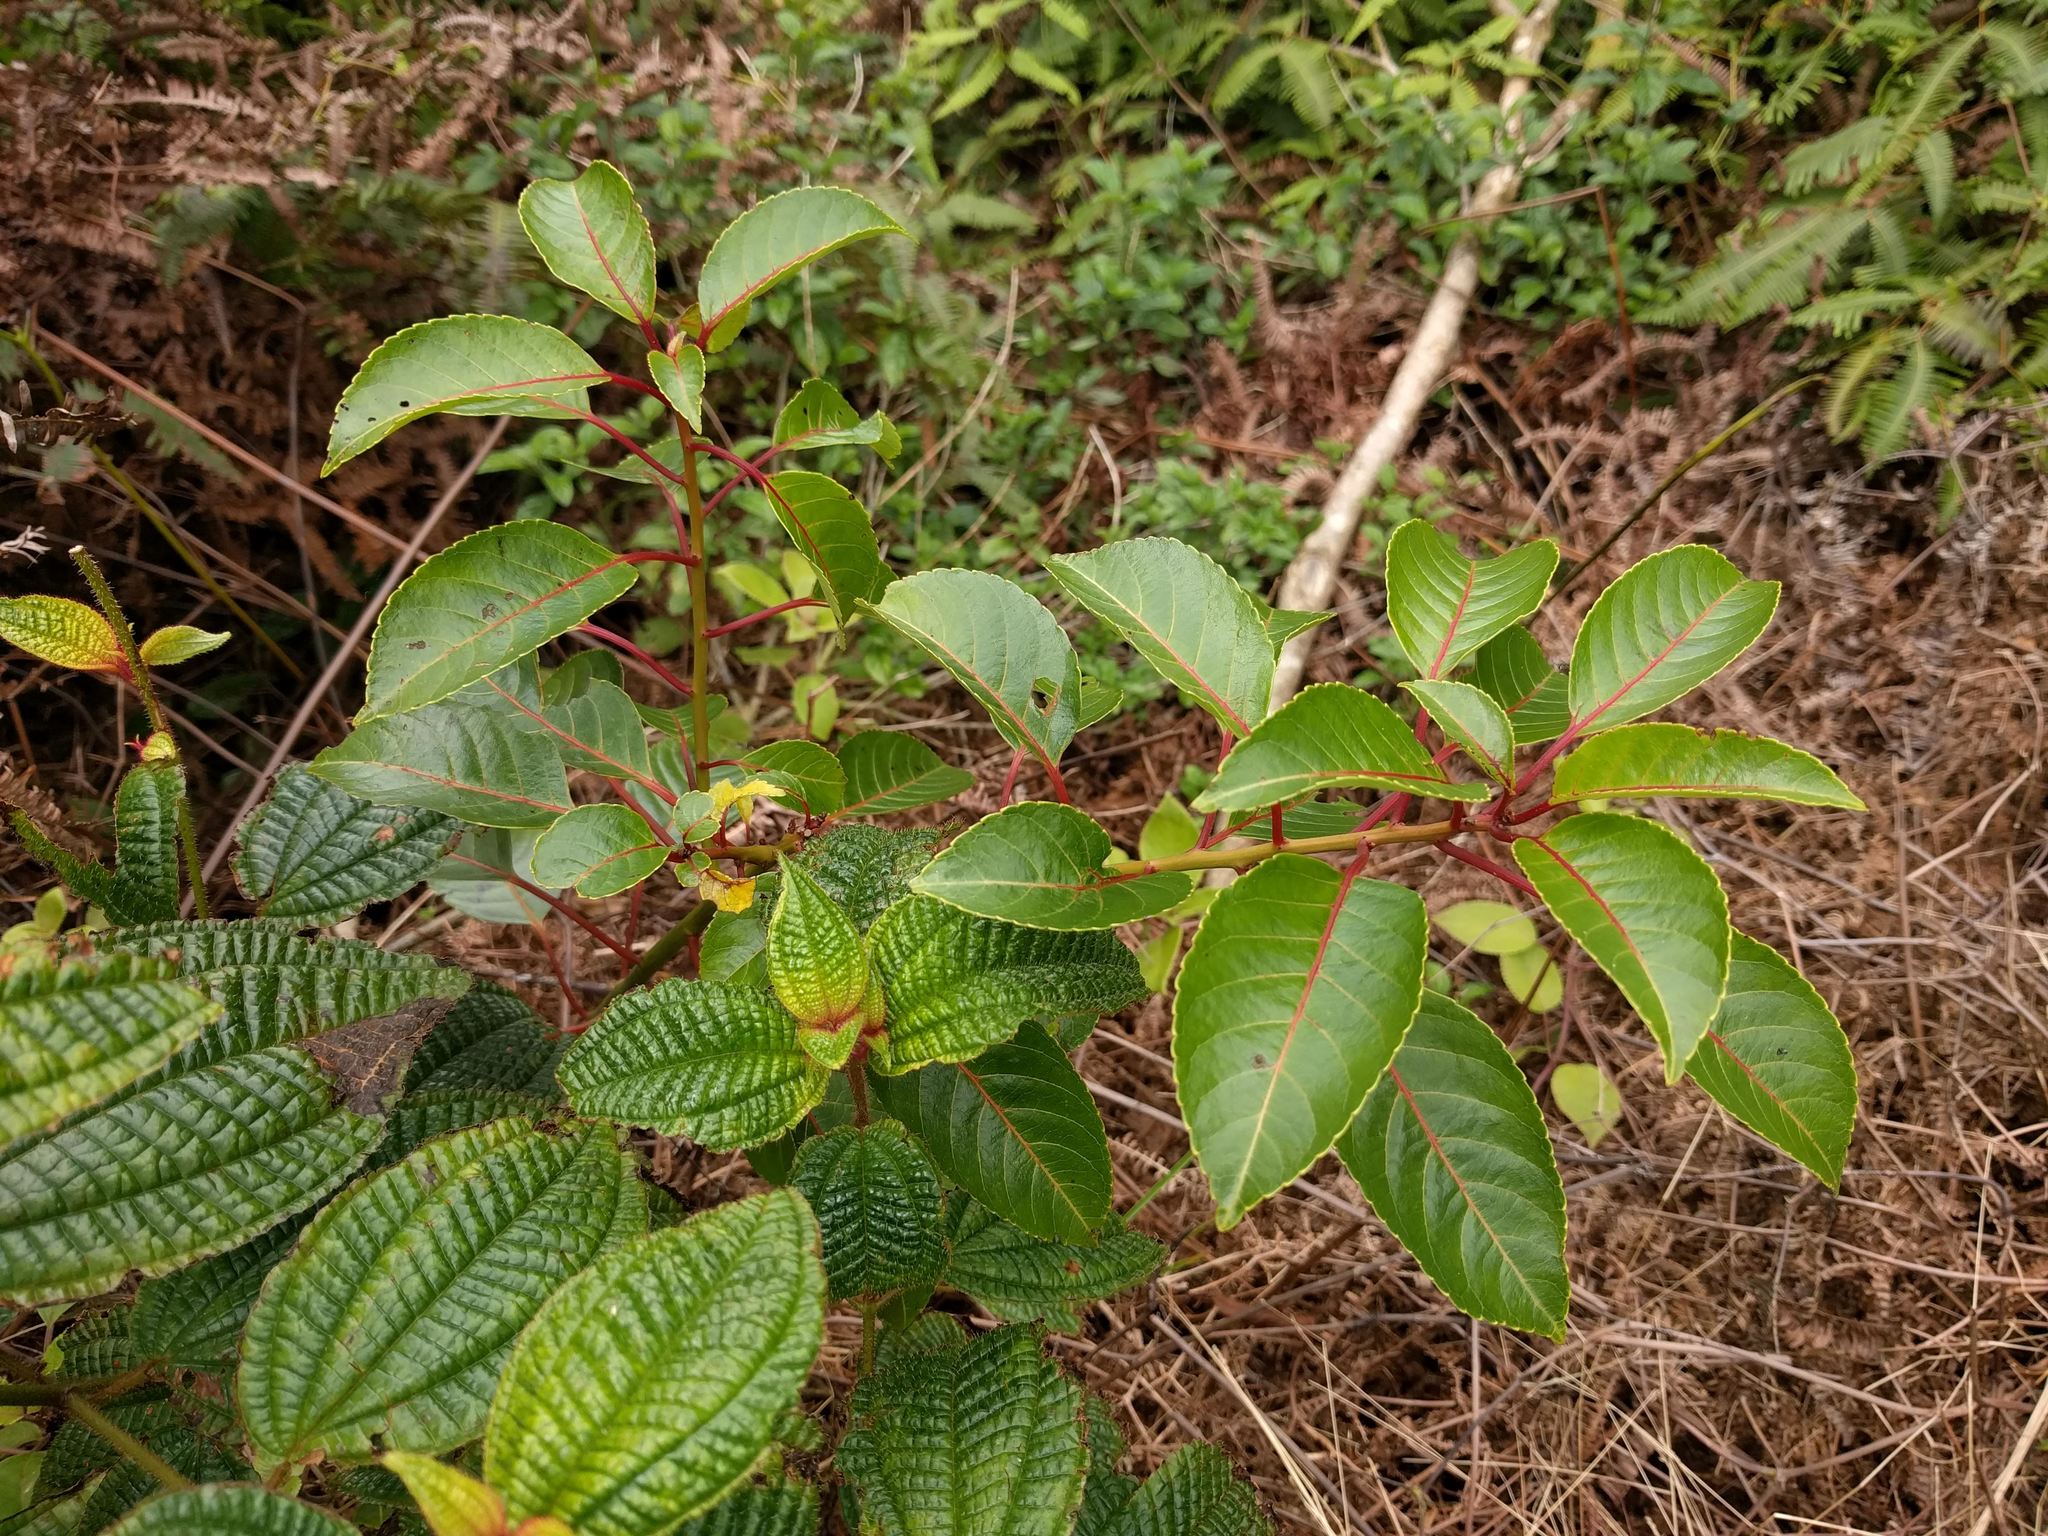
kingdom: Plantae
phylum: Tracheophyta
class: Magnoliopsida
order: Huerteales
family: Dipentodontaceae
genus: Perrottetia
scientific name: Perrottetia sandwicensis
